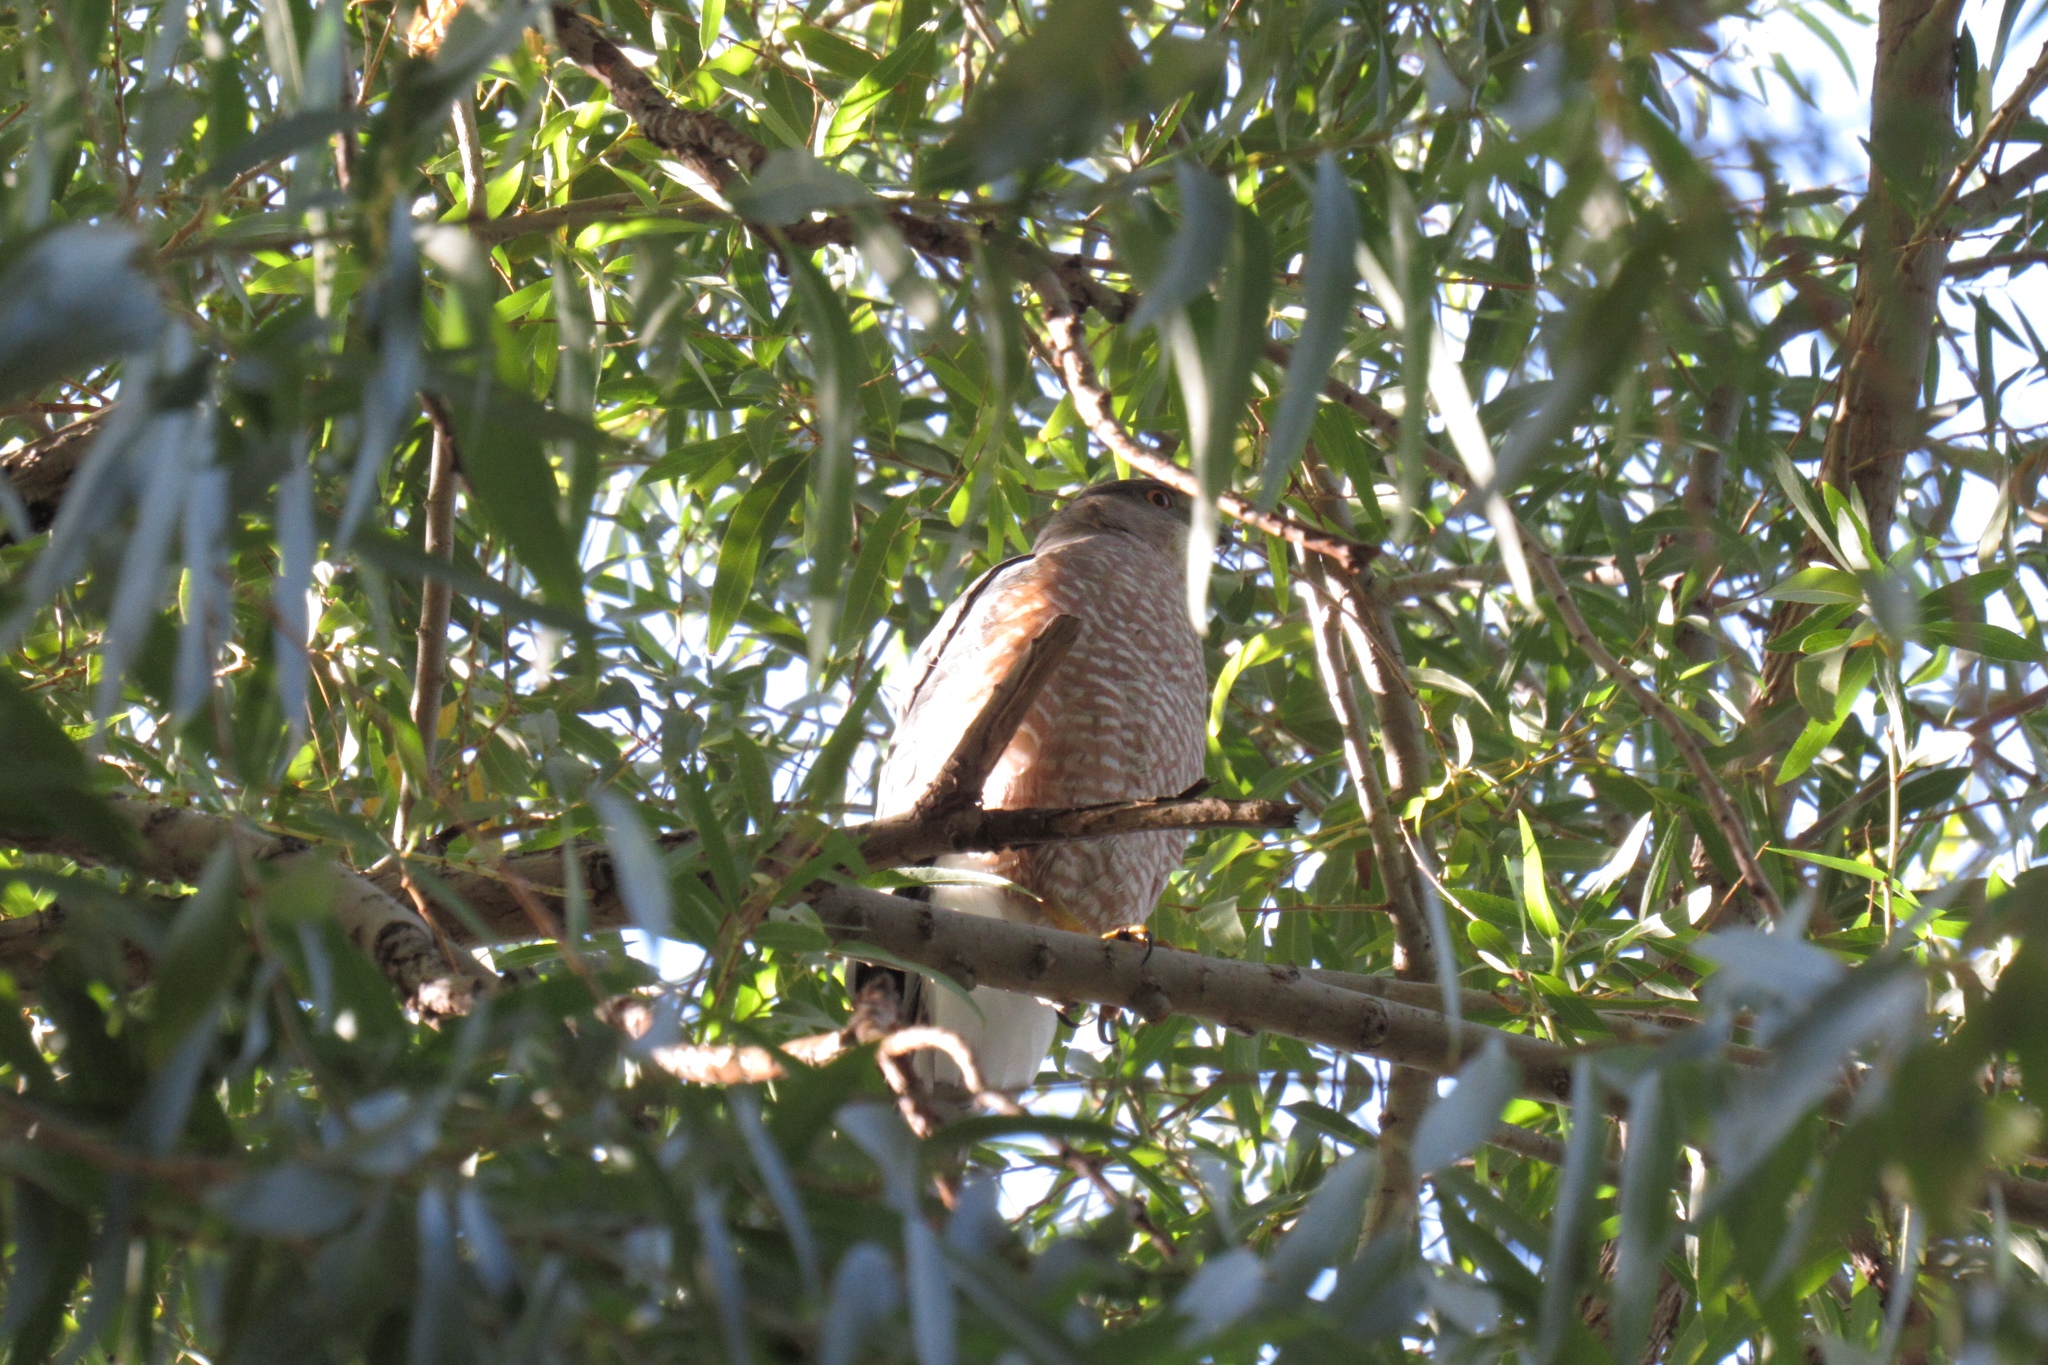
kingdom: Animalia
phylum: Chordata
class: Aves
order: Accipitriformes
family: Accipitridae
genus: Accipiter
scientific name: Accipiter cooperii
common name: Cooper's hawk
